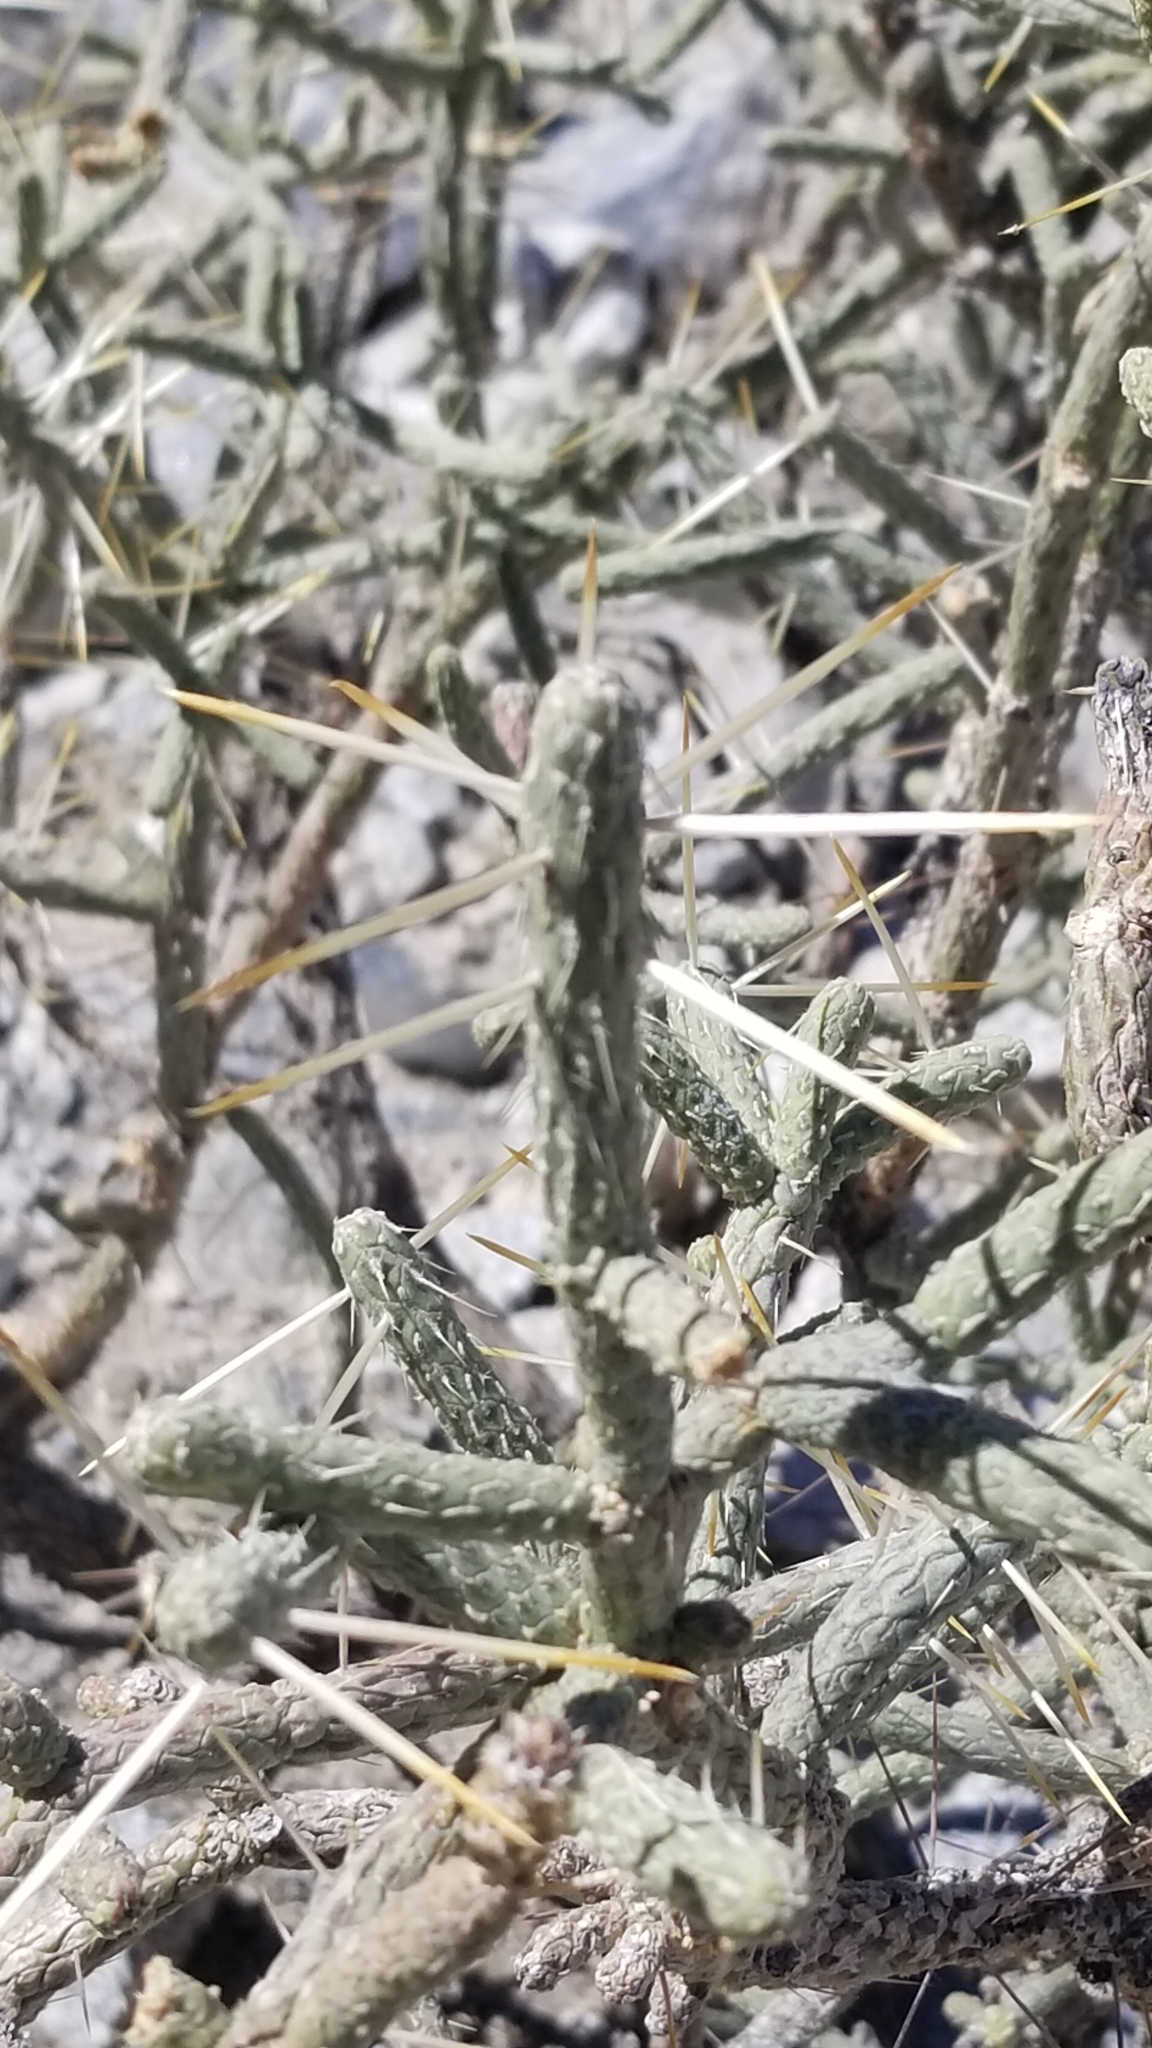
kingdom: Plantae
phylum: Tracheophyta
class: Magnoliopsida
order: Caryophyllales
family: Cactaceae
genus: Cylindropuntia
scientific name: Cylindropuntia ramosissima
